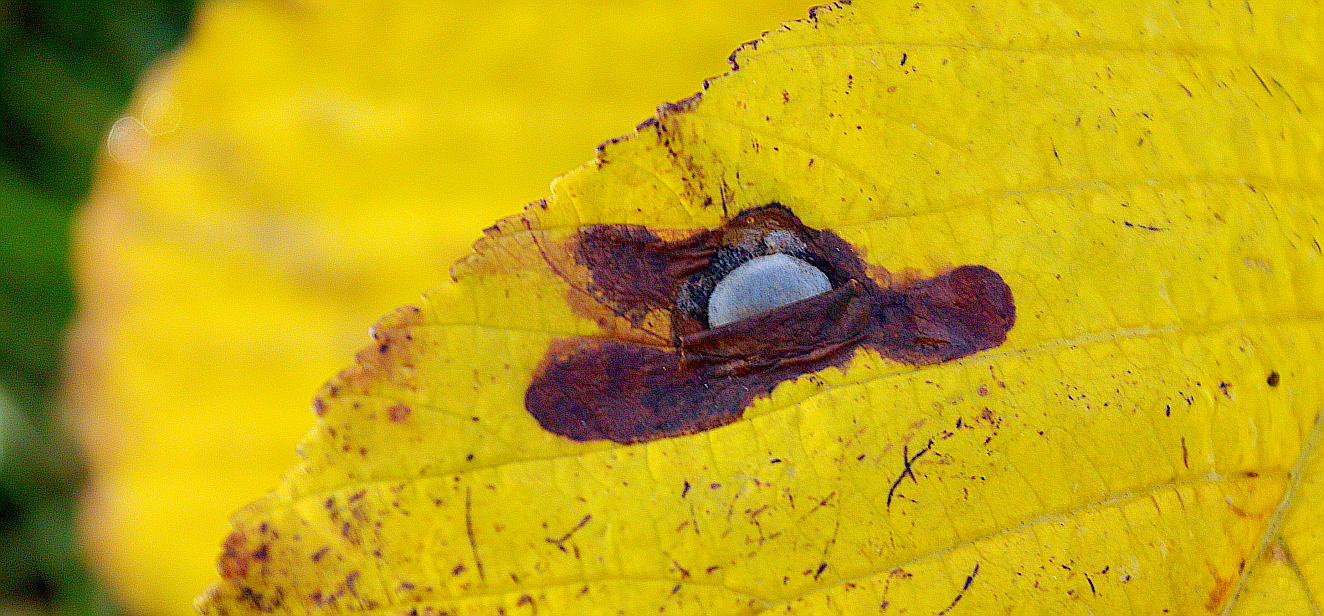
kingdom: Animalia
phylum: Arthropoda
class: Insecta
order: Lepidoptera
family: Gracillariidae
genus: Cameraria
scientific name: Cameraria ohridella
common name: Horse-chestnut leaf-miner
